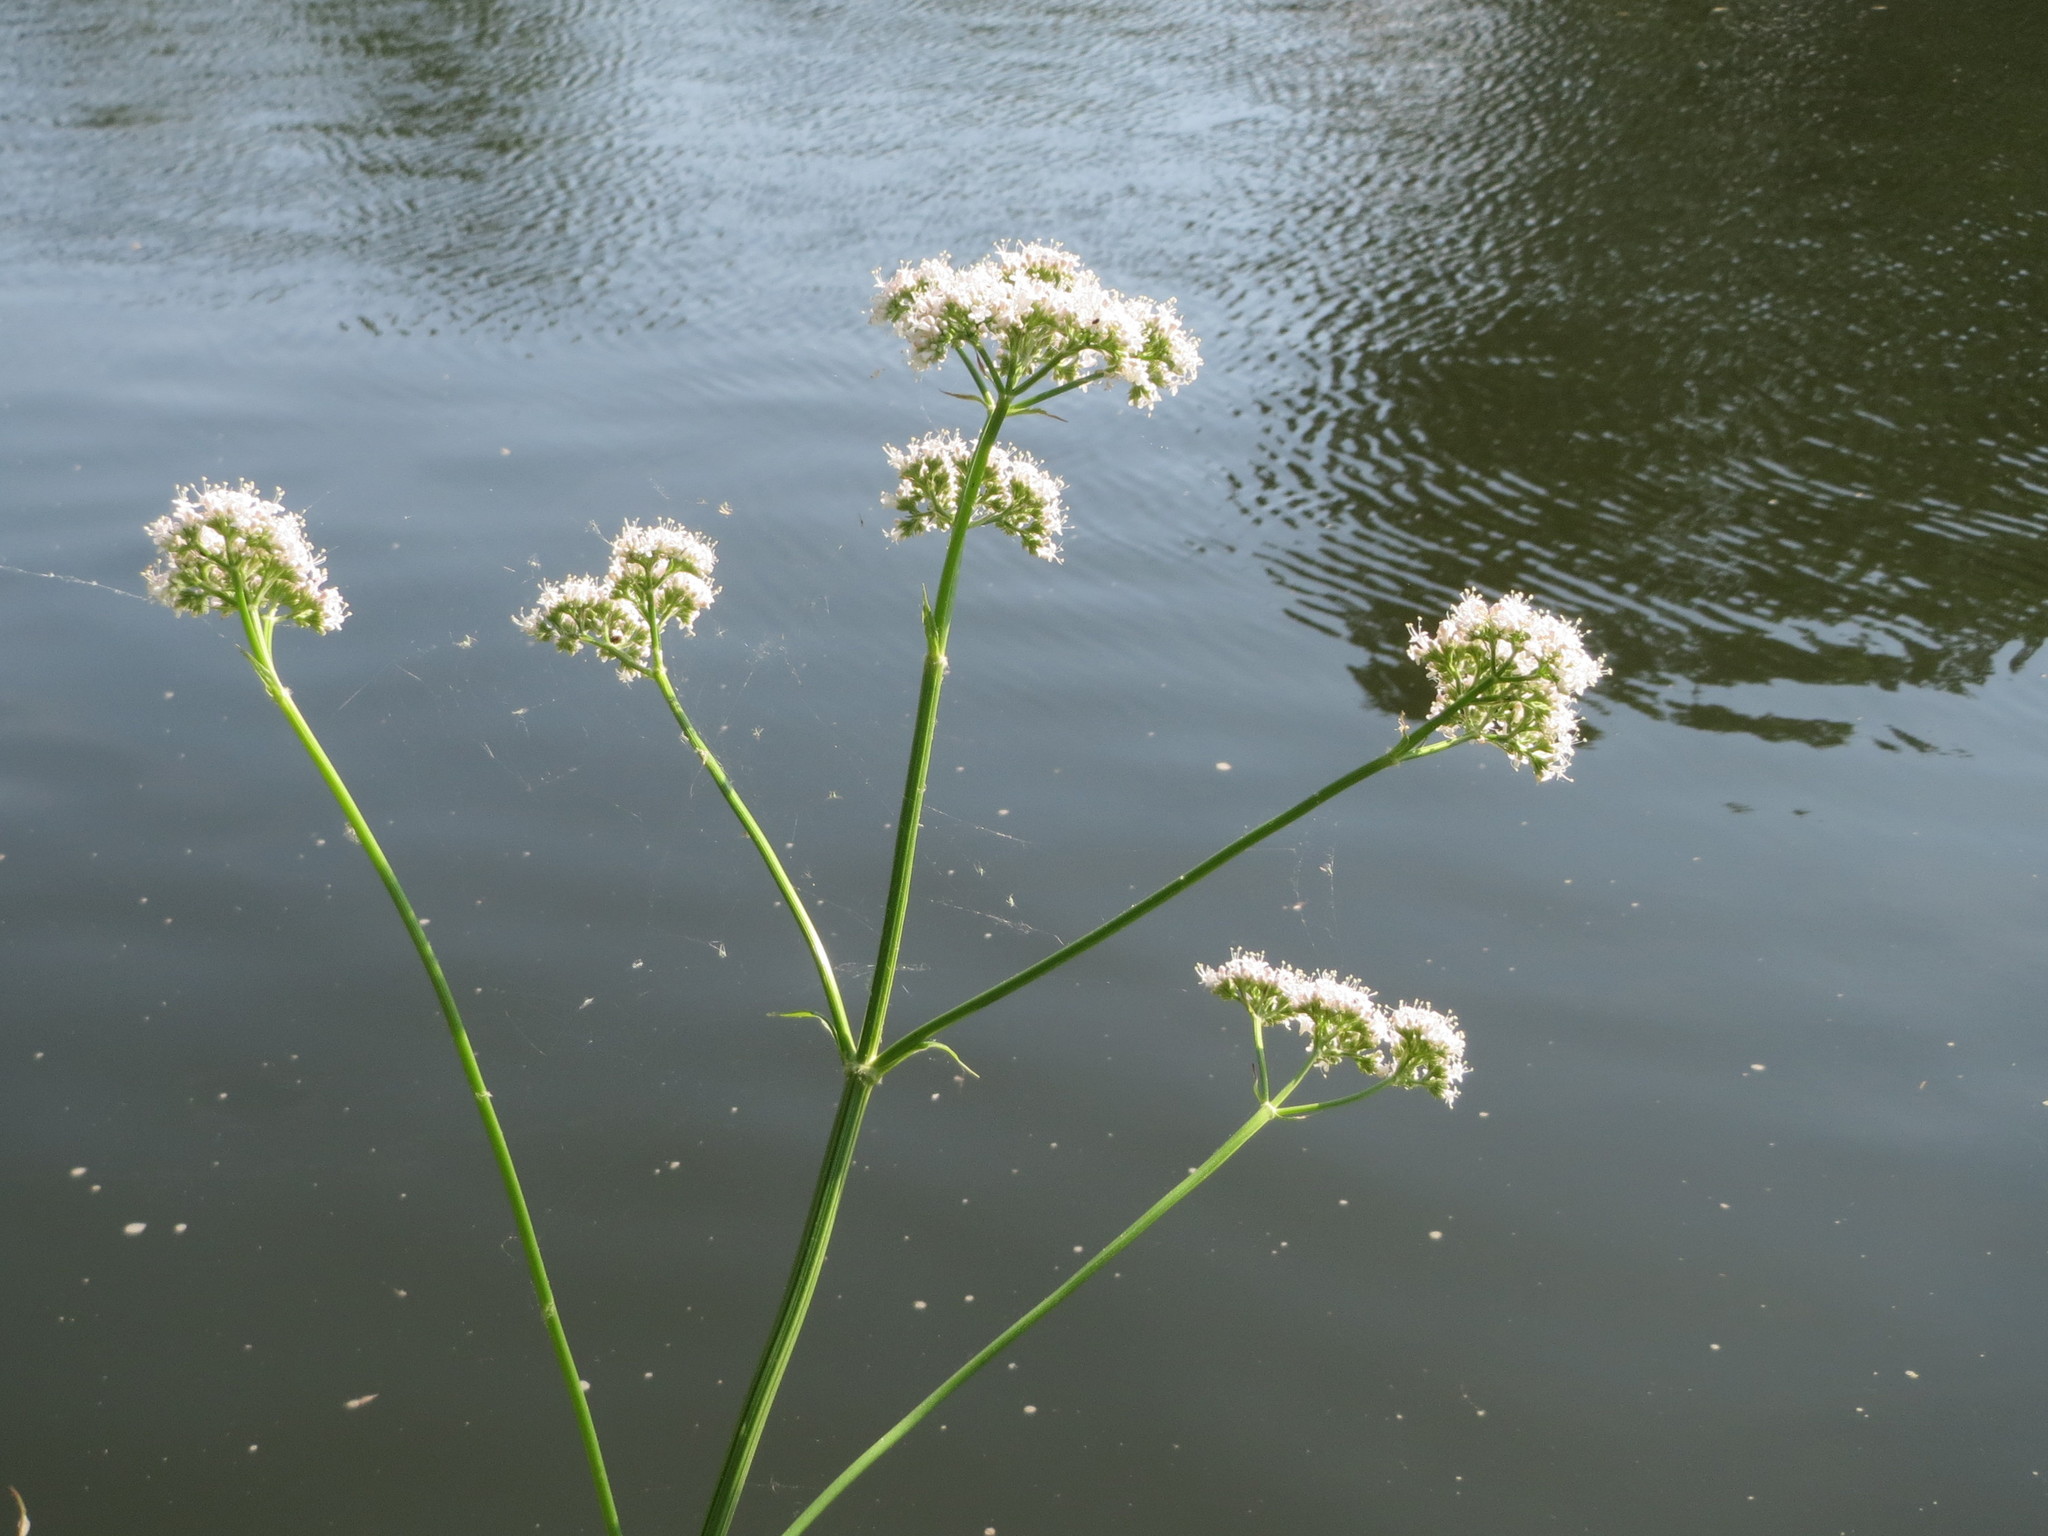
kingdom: Plantae
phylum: Tracheophyta
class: Magnoliopsida
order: Dipsacales
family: Caprifoliaceae
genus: Valeriana
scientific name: Valeriana officinalis
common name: Common valerian
